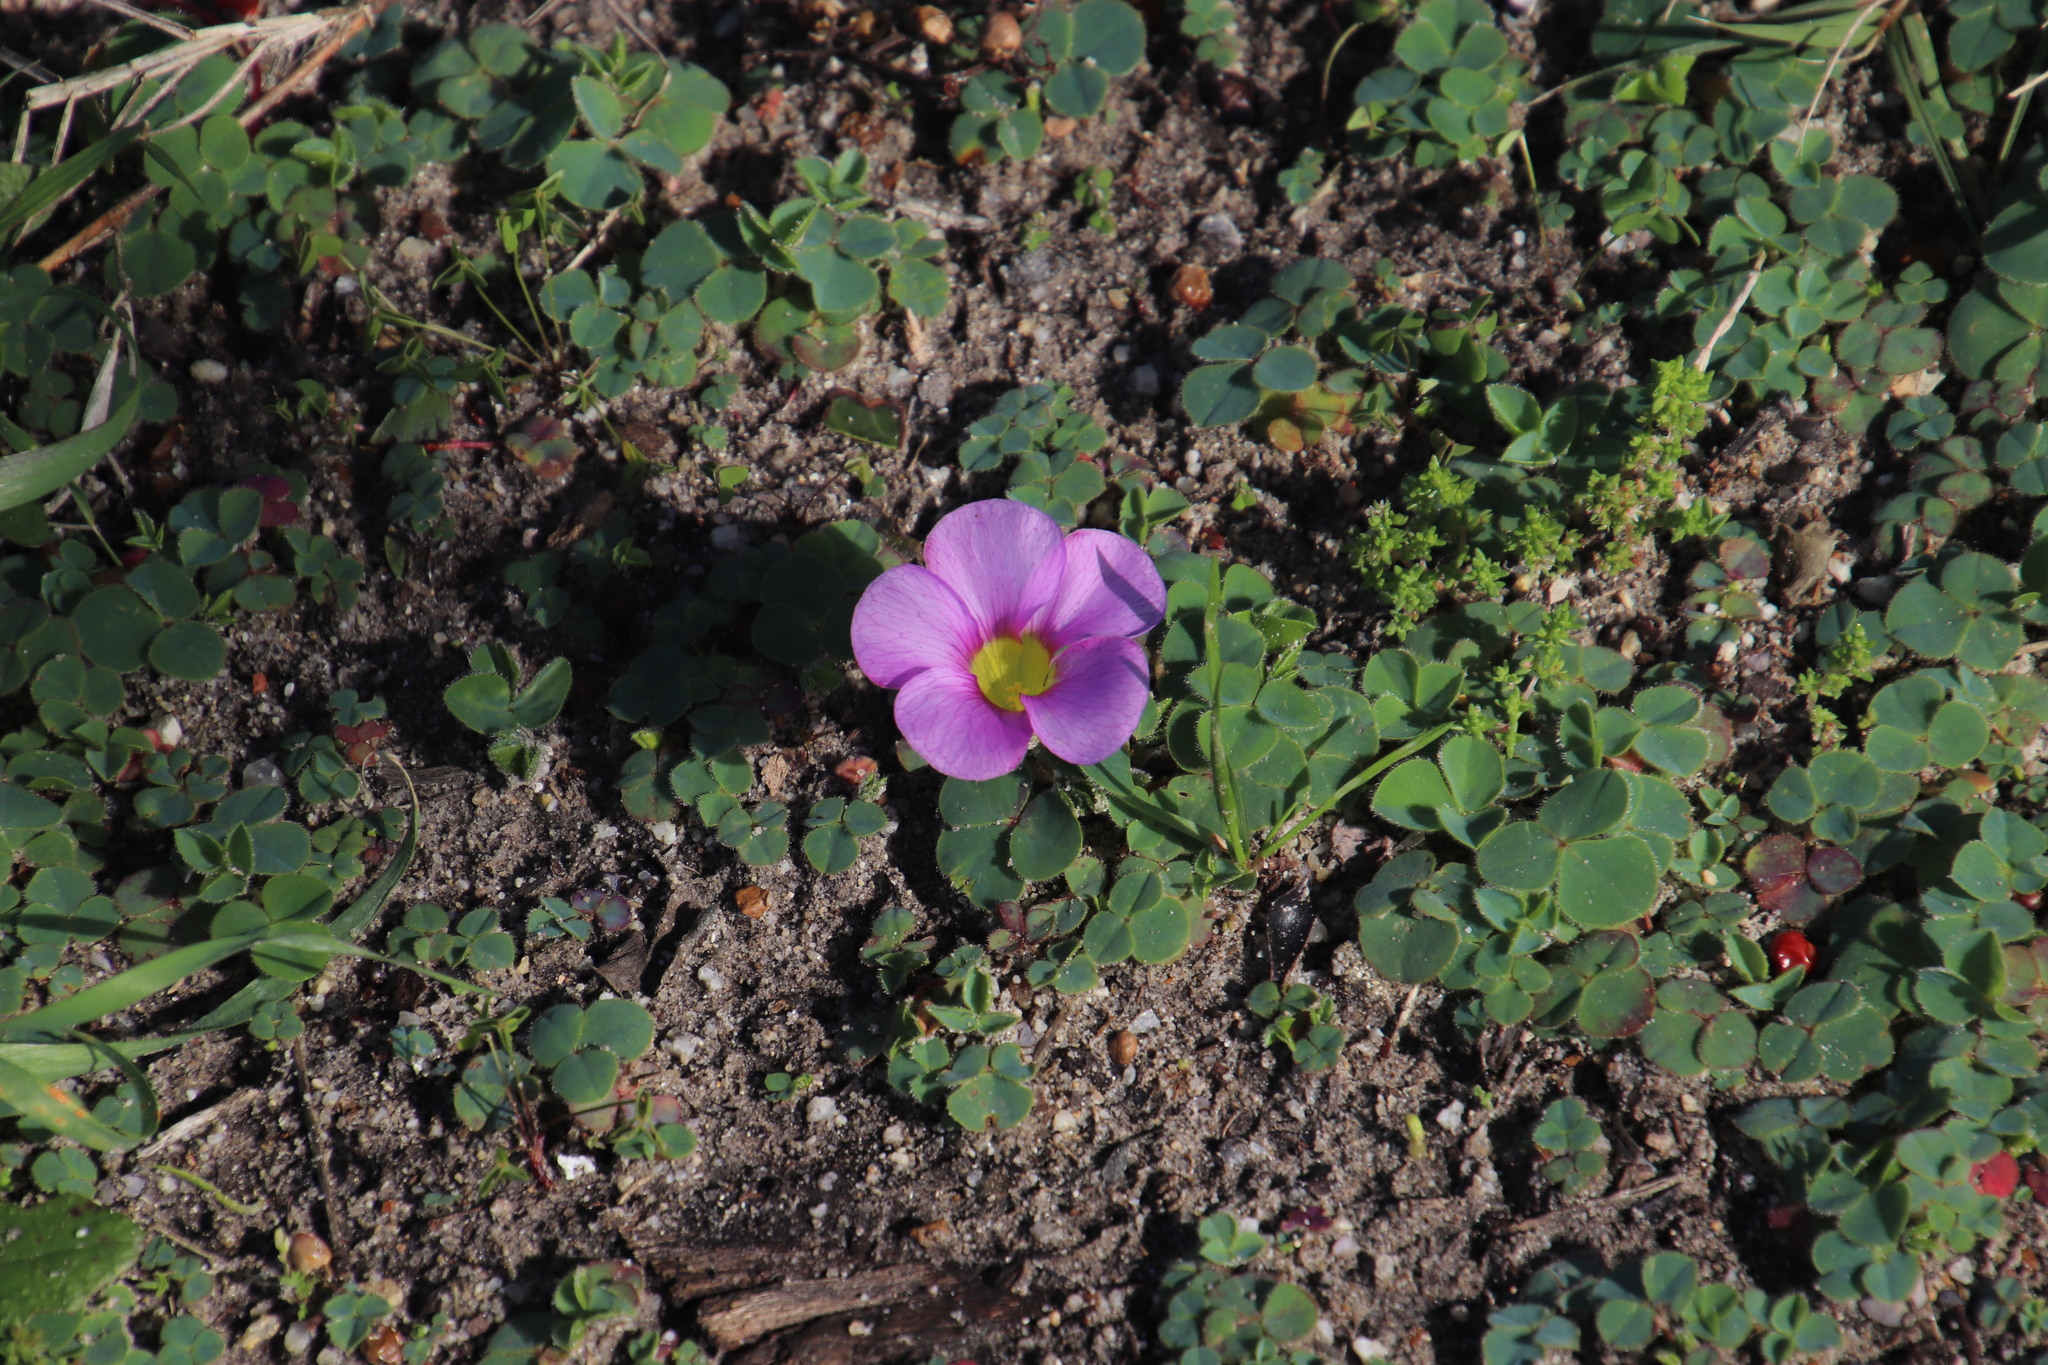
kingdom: Plantae
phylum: Tracheophyta
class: Magnoliopsida
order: Oxalidales
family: Oxalidaceae
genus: Oxalis
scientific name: Oxalis purpurea
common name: Purple woodsorrel
